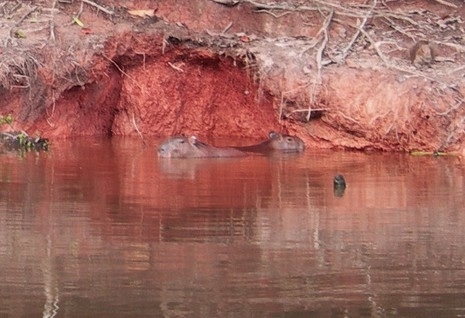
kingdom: Animalia
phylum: Chordata
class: Mammalia
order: Rodentia
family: Caviidae
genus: Hydrochoerus
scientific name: Hydrochoerus hydrochaeris
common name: Capybara
